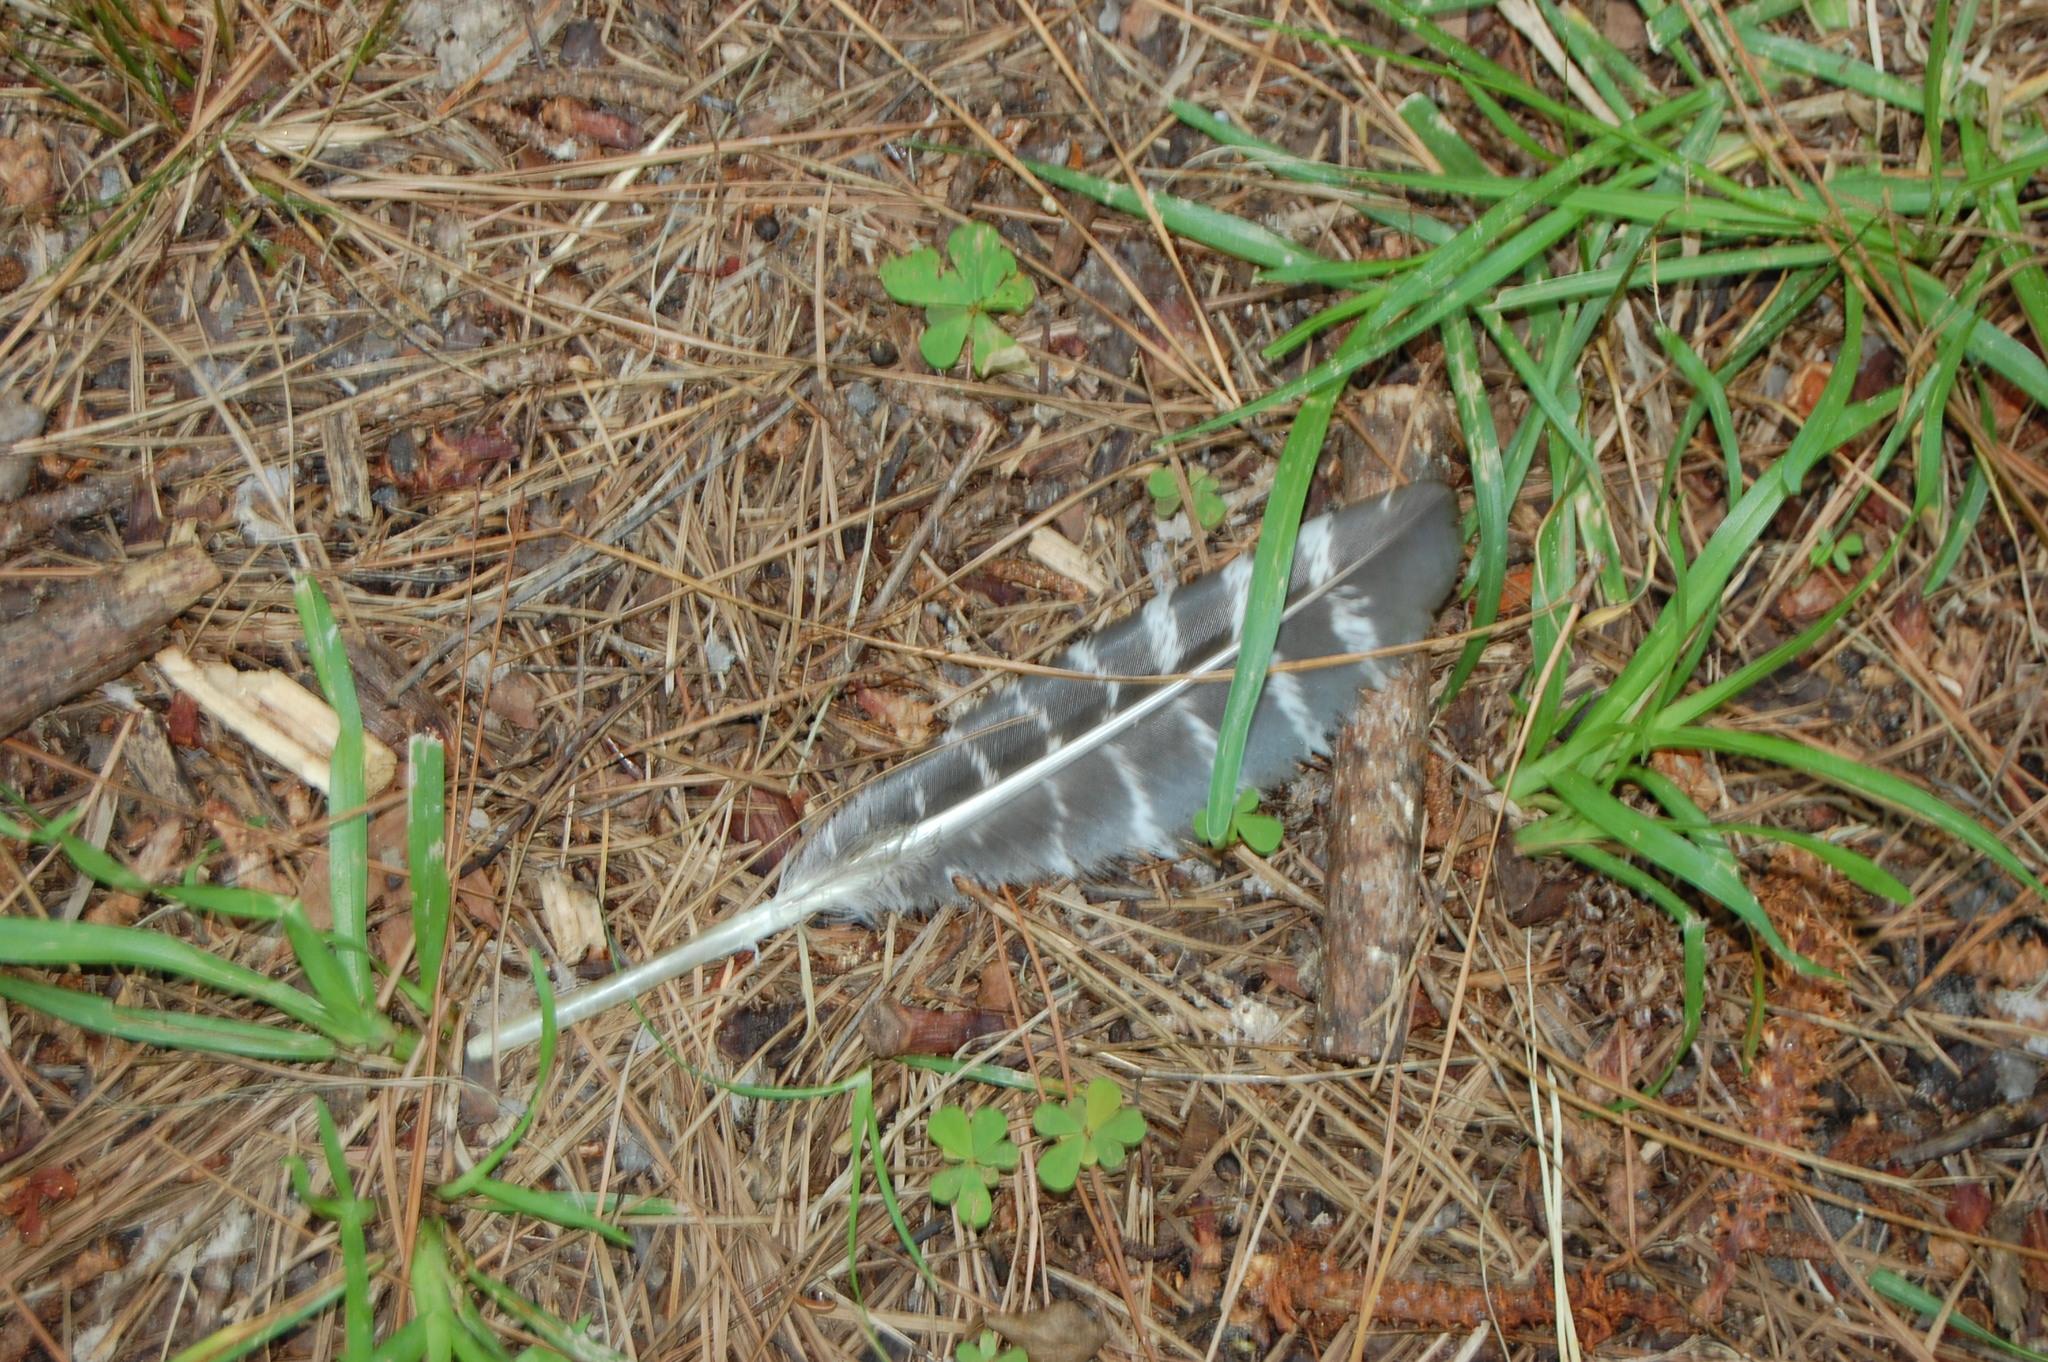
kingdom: Animalia
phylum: Chordata
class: Aves
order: Galliformes
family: Phasianidae
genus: Meleagris
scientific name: Meleagris gallopavo
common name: Wild turkey
